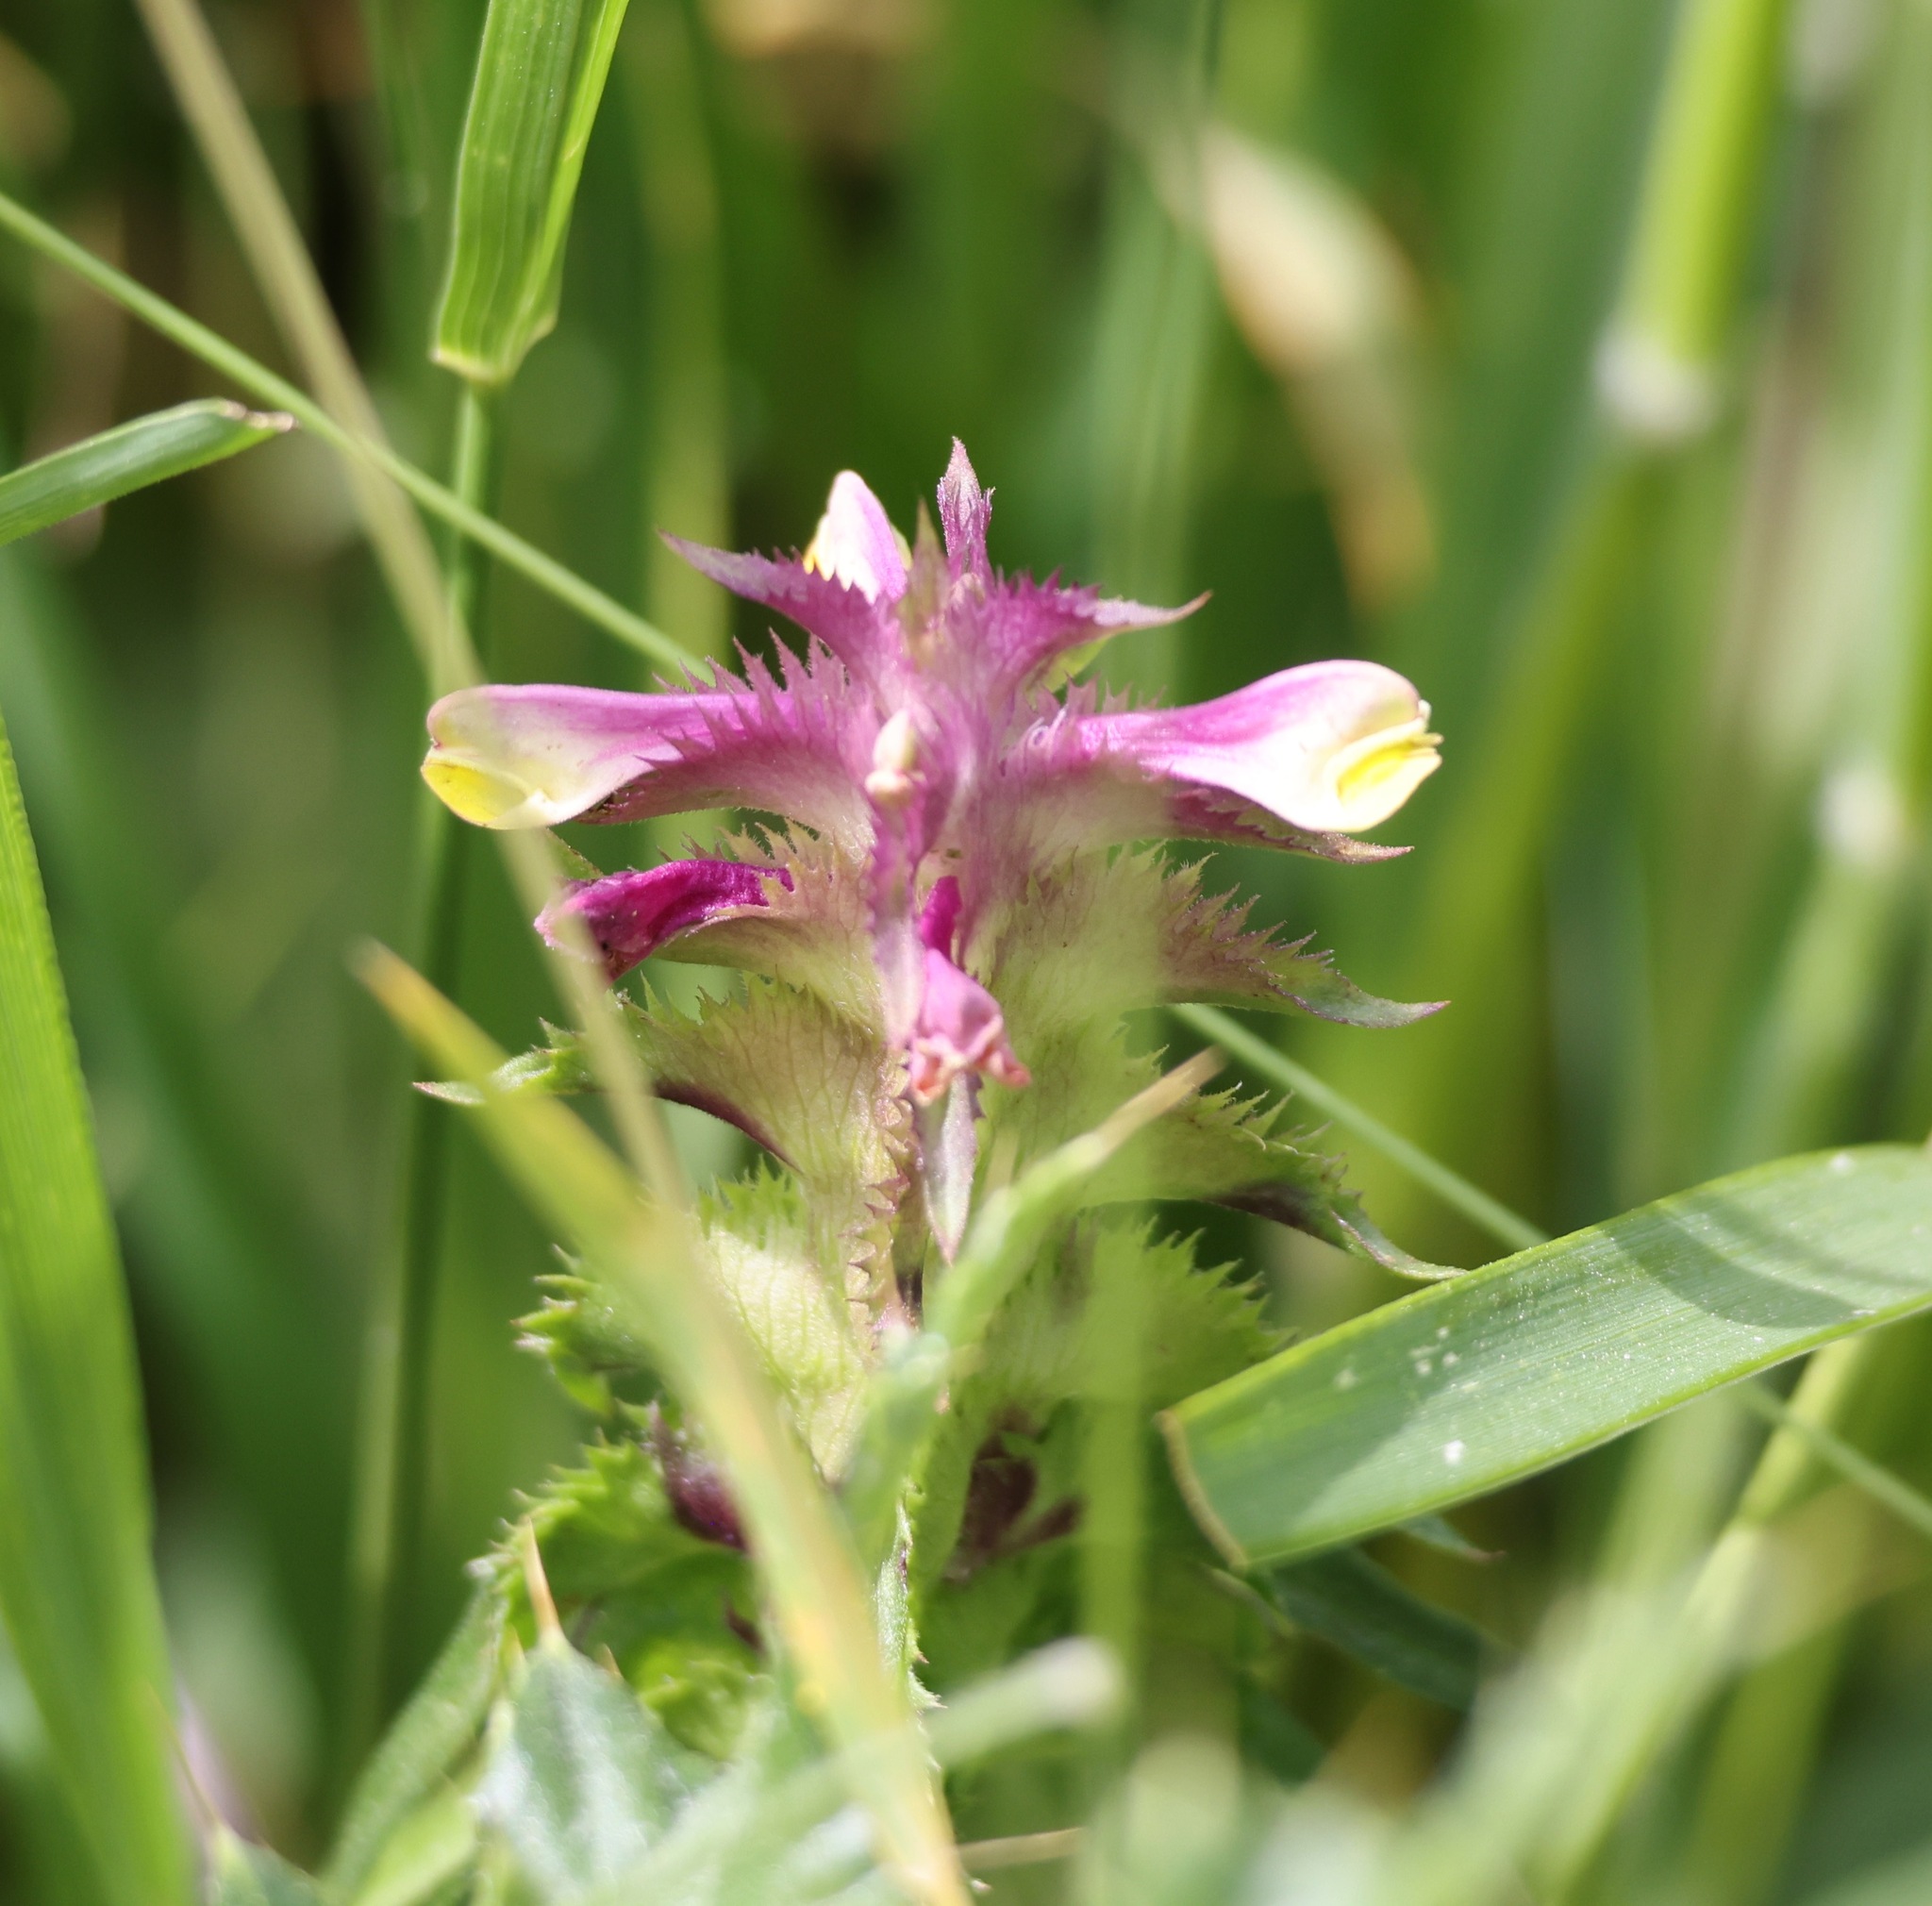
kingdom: Plantae
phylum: Tracheophyta
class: Magnoliopsida
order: Lamiales
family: Orobanchaceae
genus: Melampyrum
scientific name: Melampyrum cristatum
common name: Crested cow-wheat
